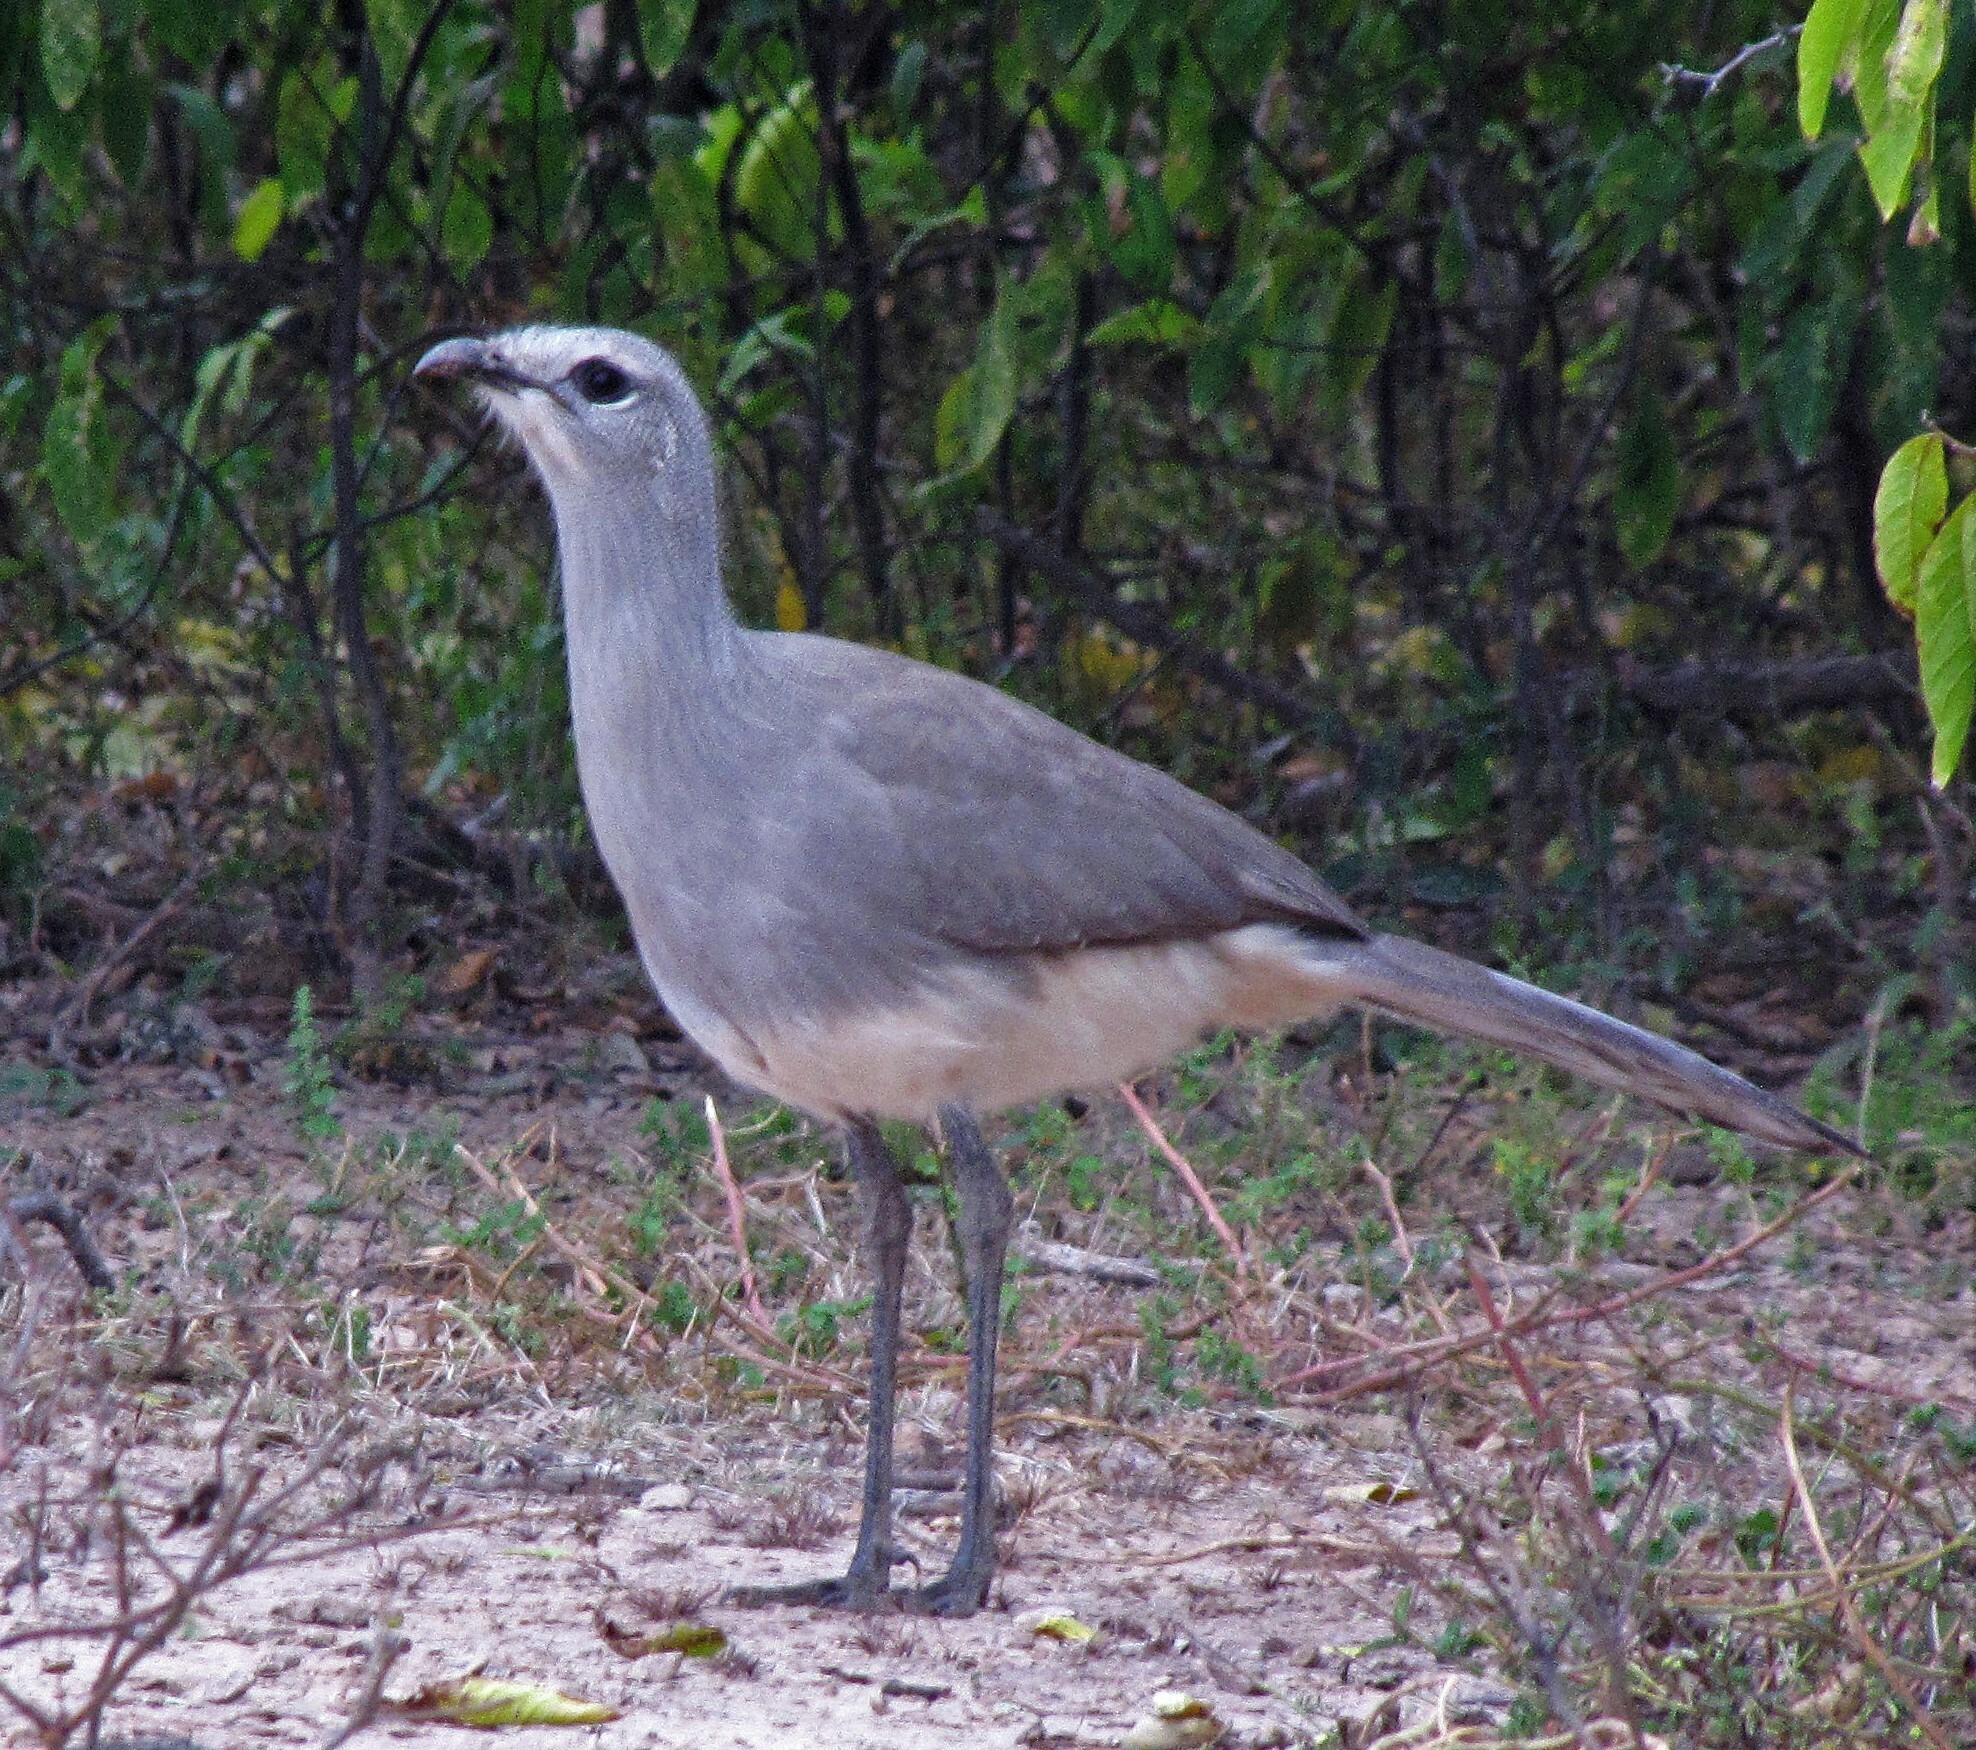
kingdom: Animalia
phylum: Chordata
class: Aves
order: Cariamiformes
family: Cariamidae
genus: Chunga
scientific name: Chunga burmeisteri
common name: Black-legged seriema
